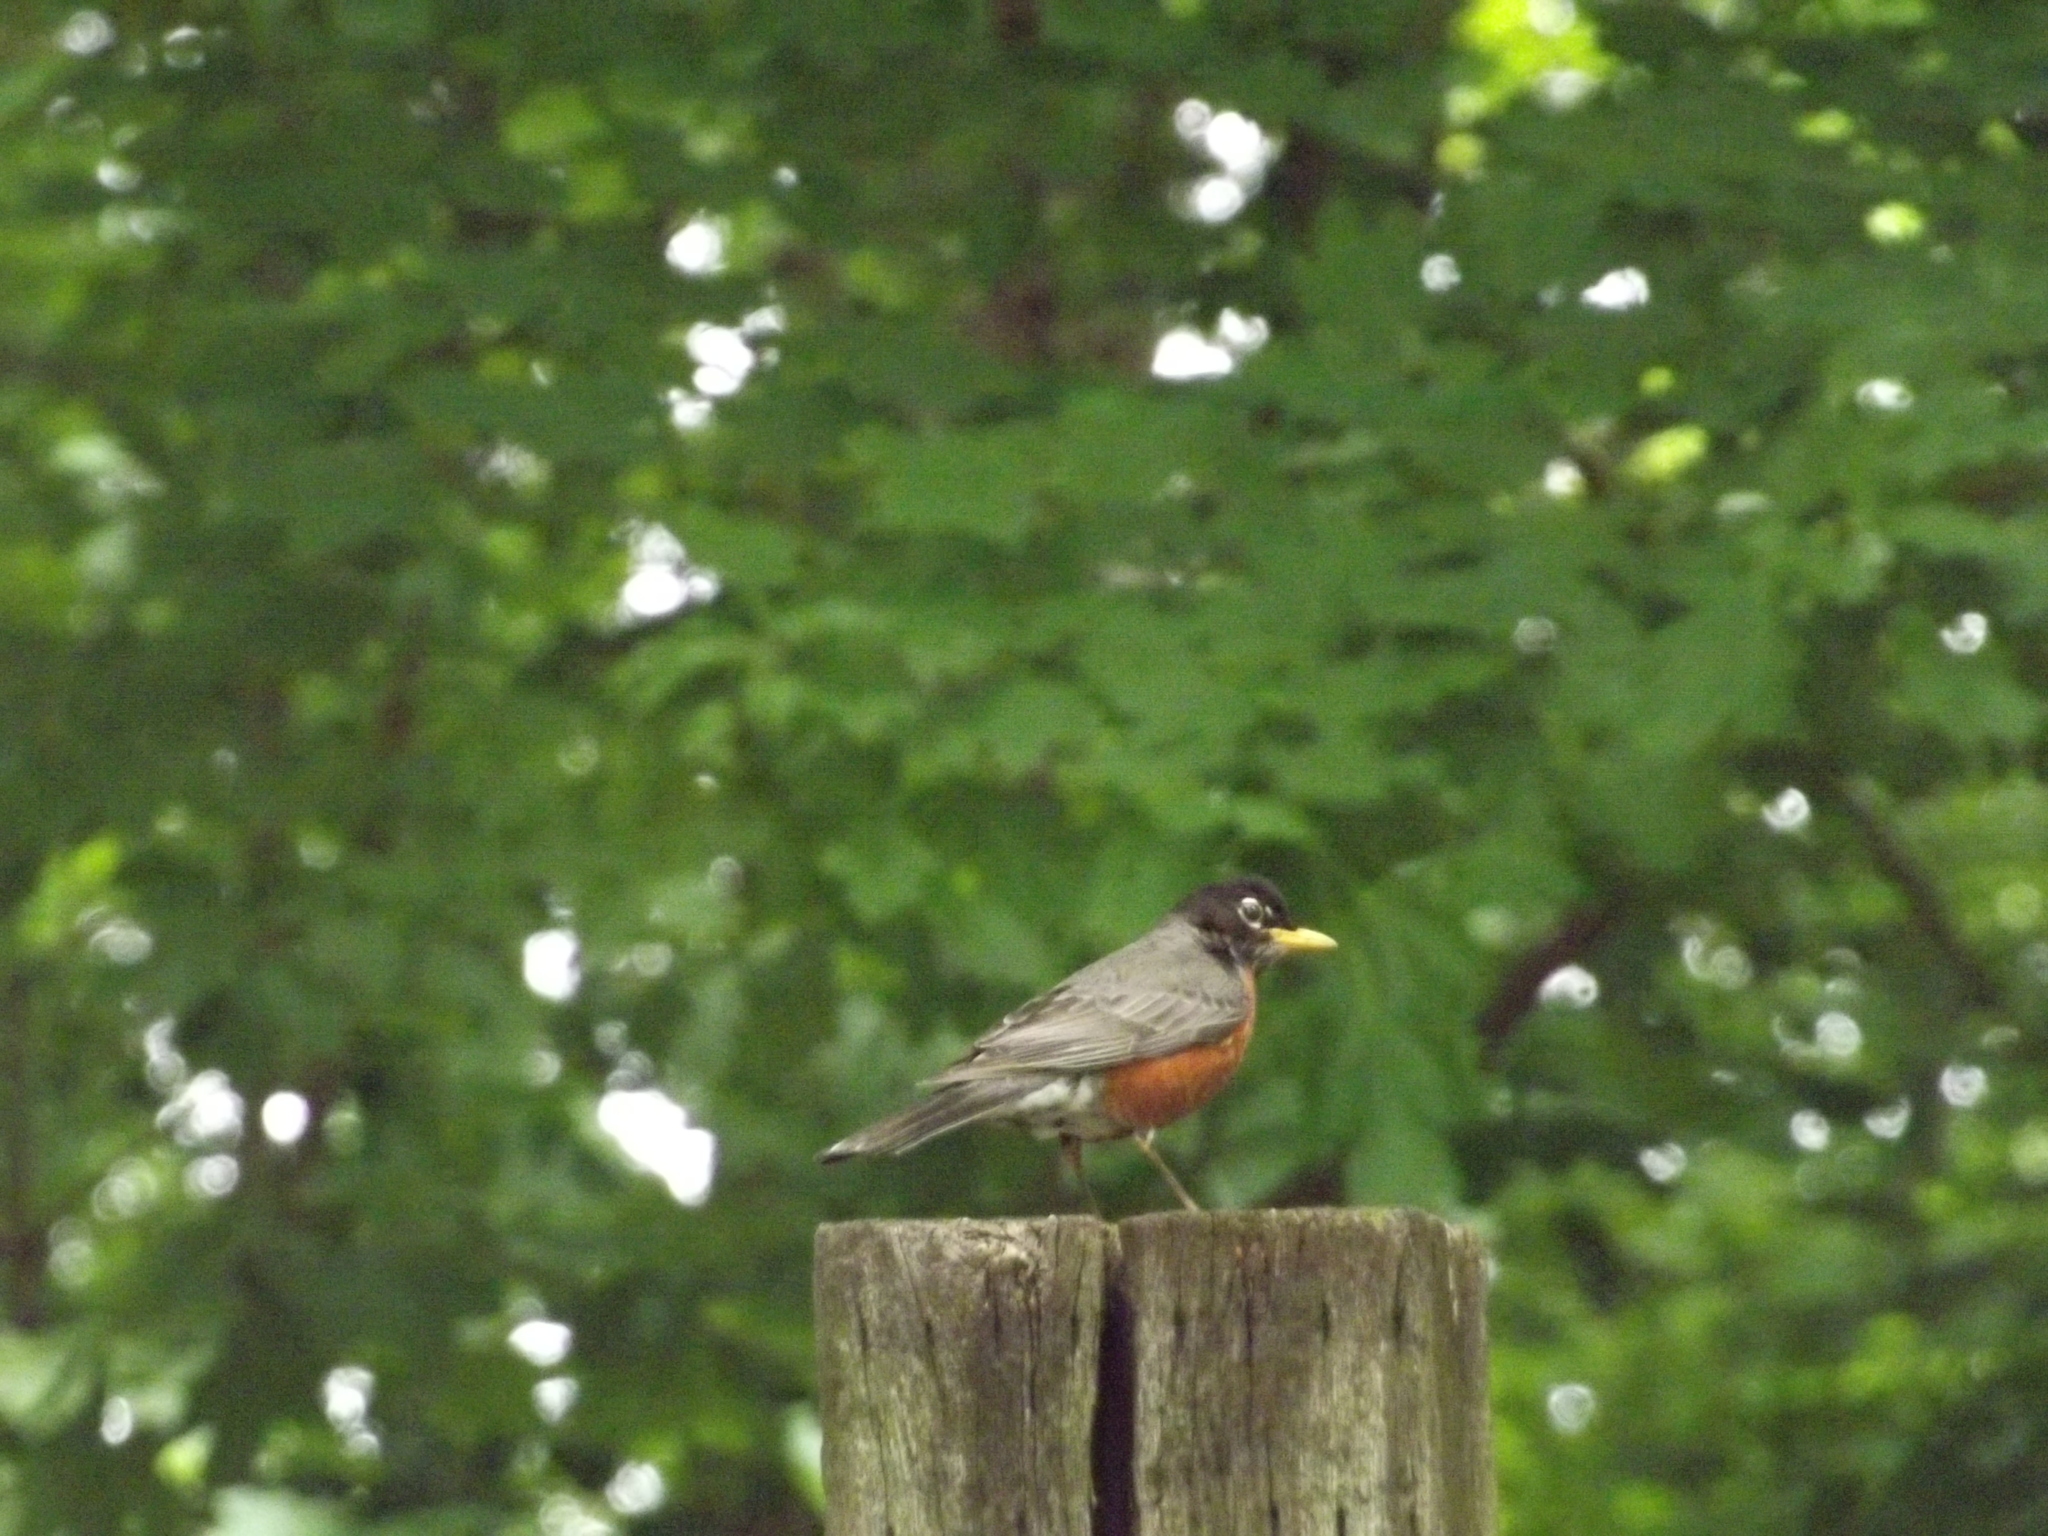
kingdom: Animalia
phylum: Chordata
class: Aves
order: Passeriformes
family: Turdidae
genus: Turdus
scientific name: Turdus migratorius
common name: American robin
